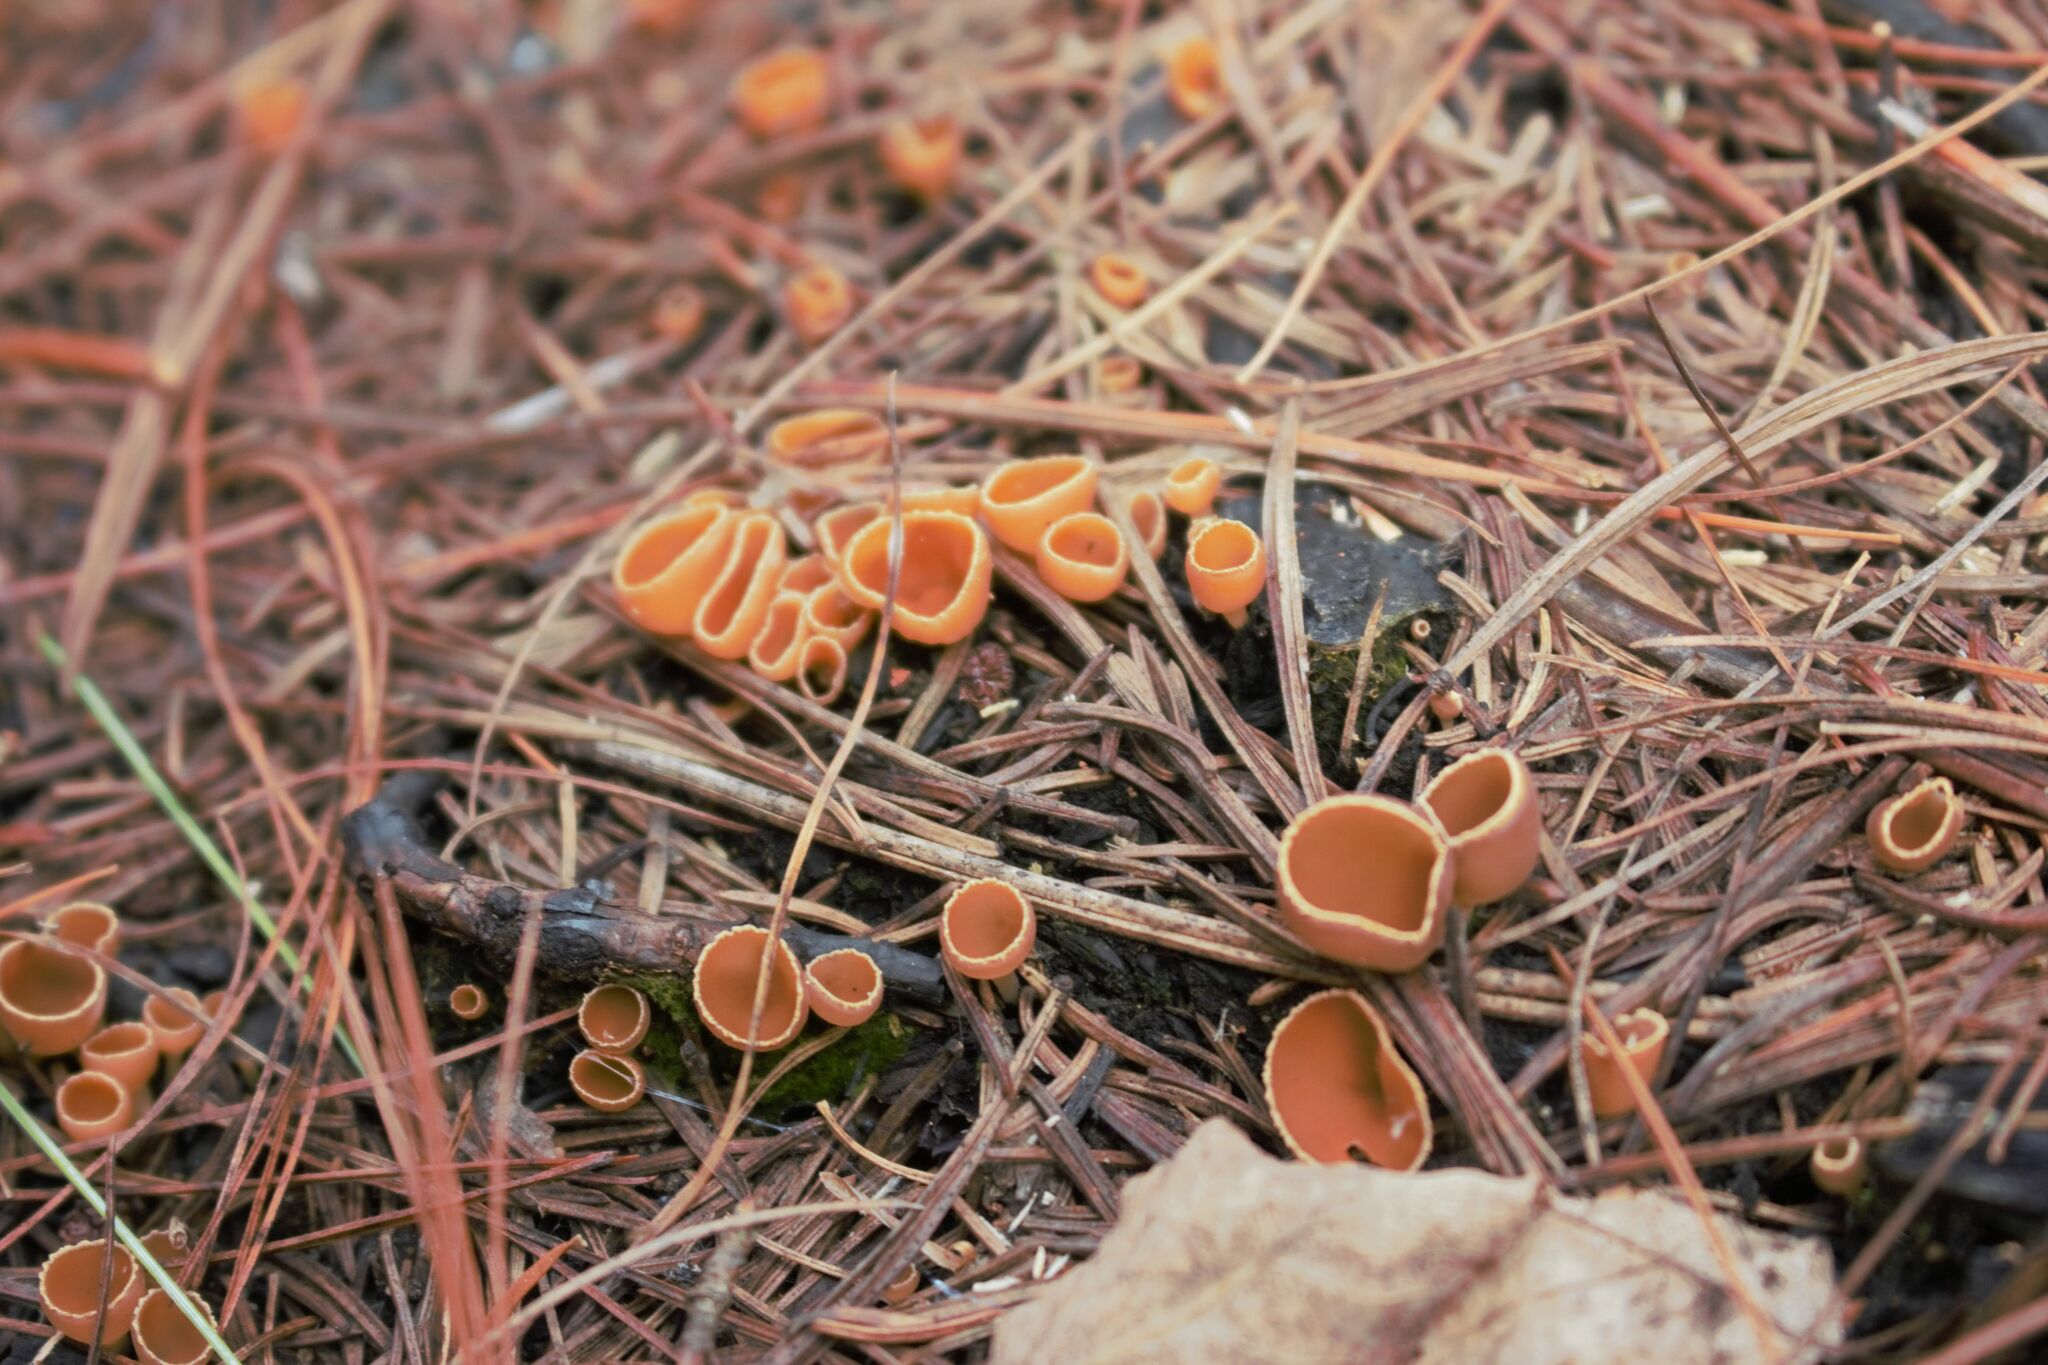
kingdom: Fungi
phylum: Ascomycota
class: Pezizomycetes
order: Pezizales
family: Pyronemataceae
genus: Geopyxis
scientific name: Geopyxis carbonaria
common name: Stalked bonfire cup
